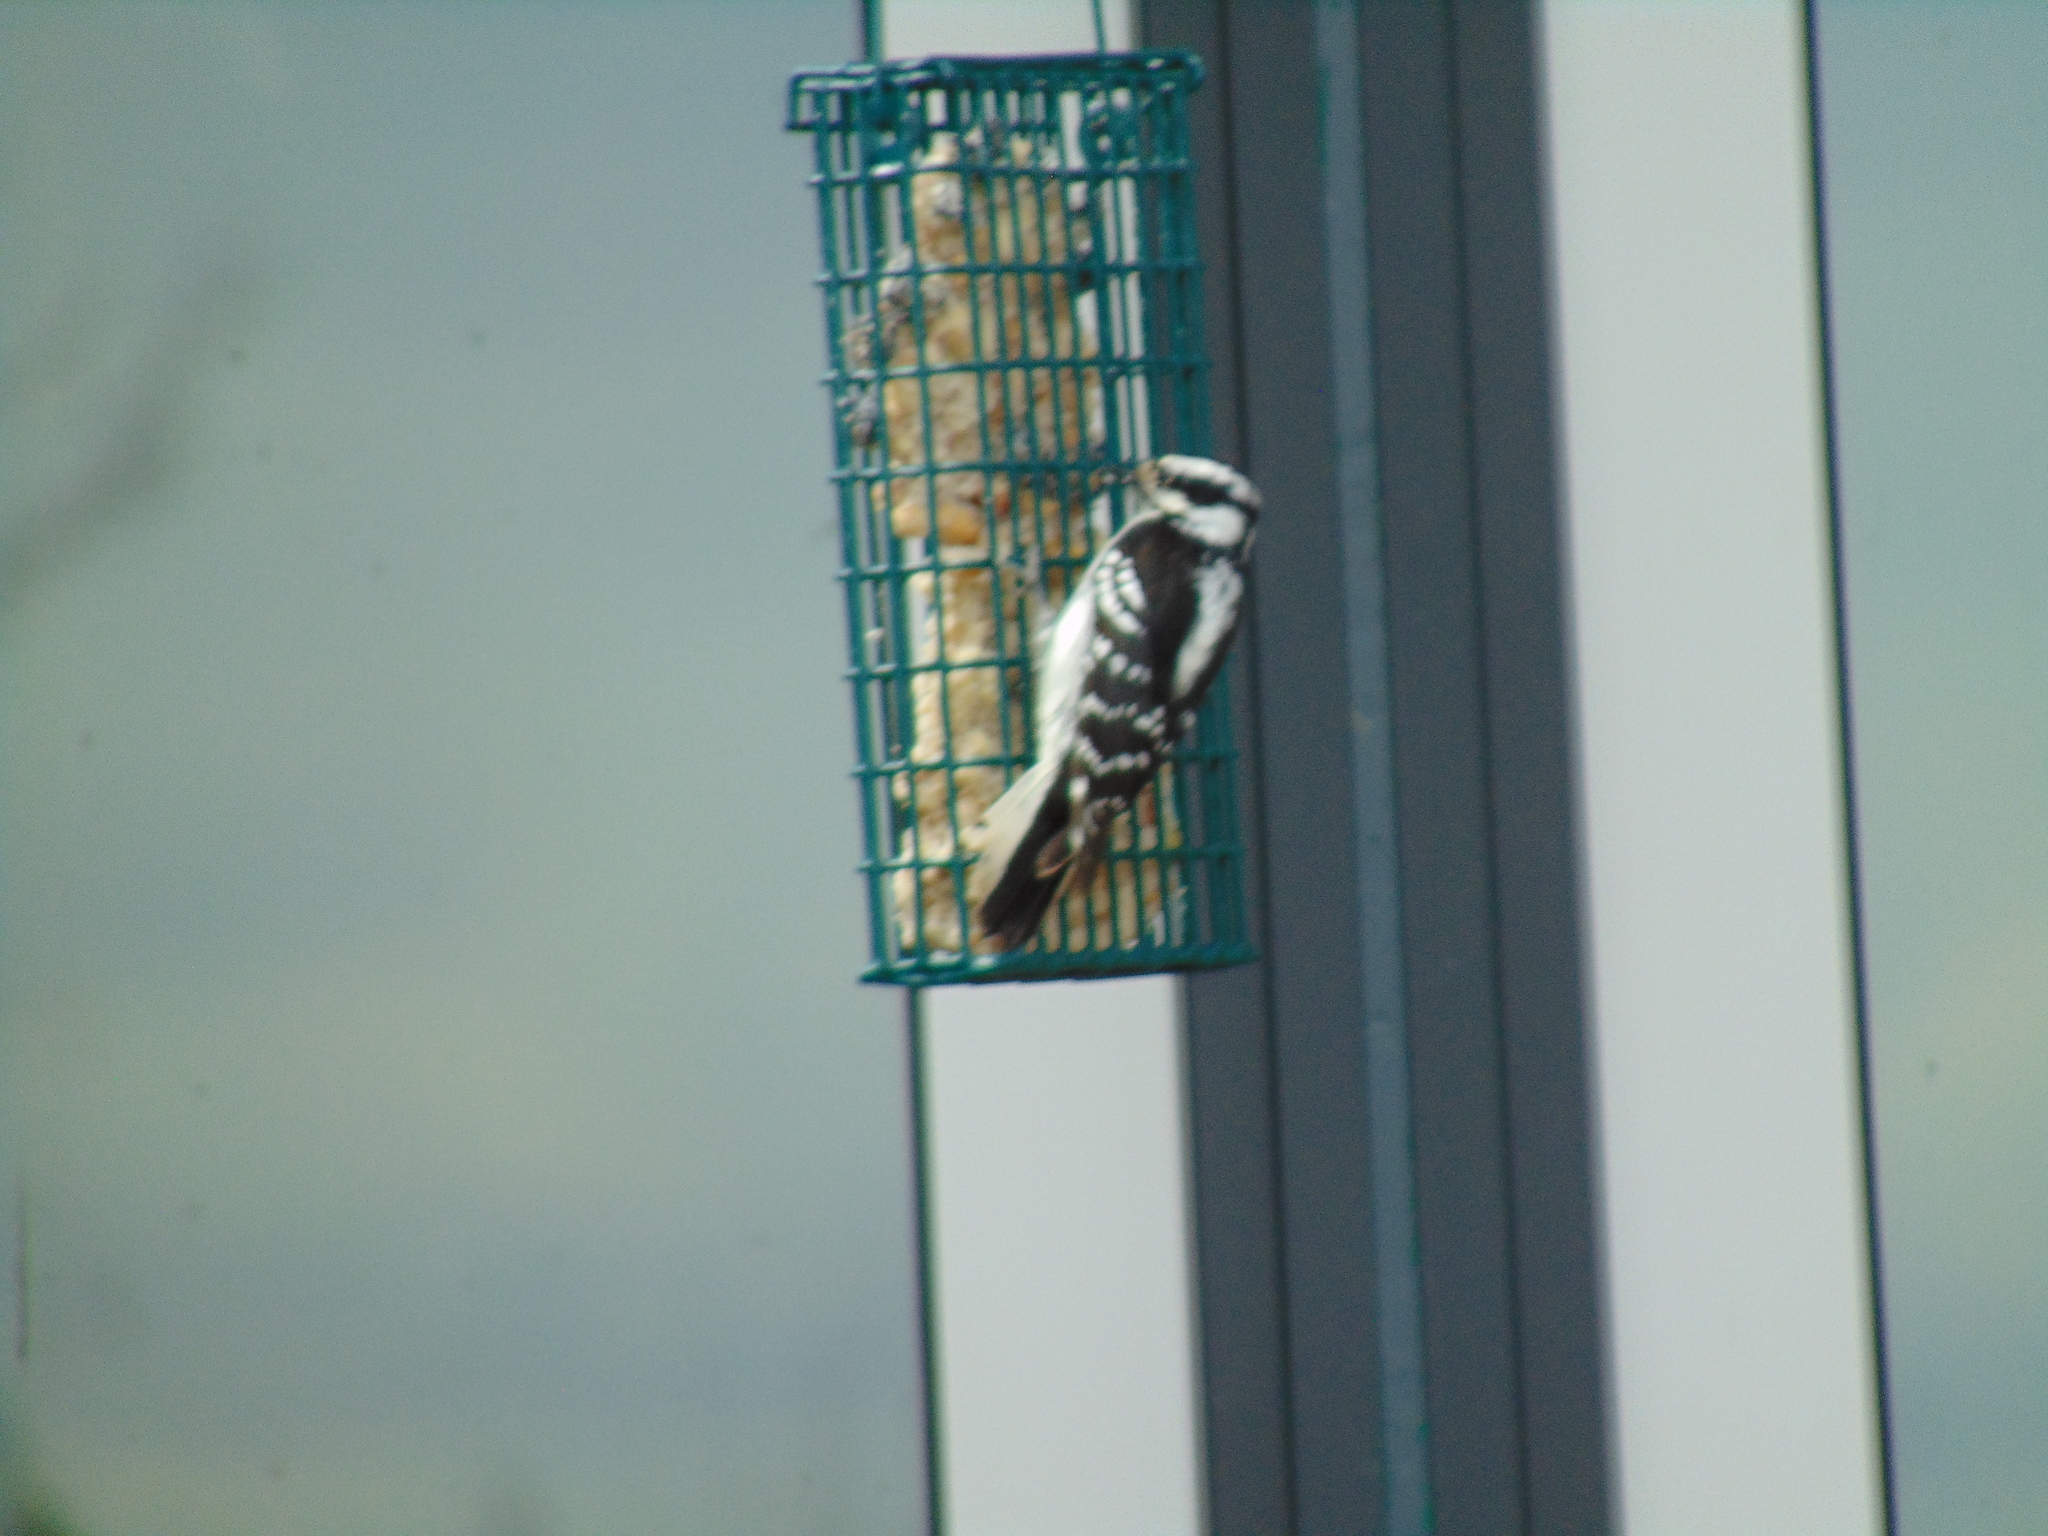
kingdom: Animalia
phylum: Chordata
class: Aves
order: Piciformes
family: Picidae
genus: Dryobates
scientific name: Dryobates pubescens
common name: Downy woodpecker
